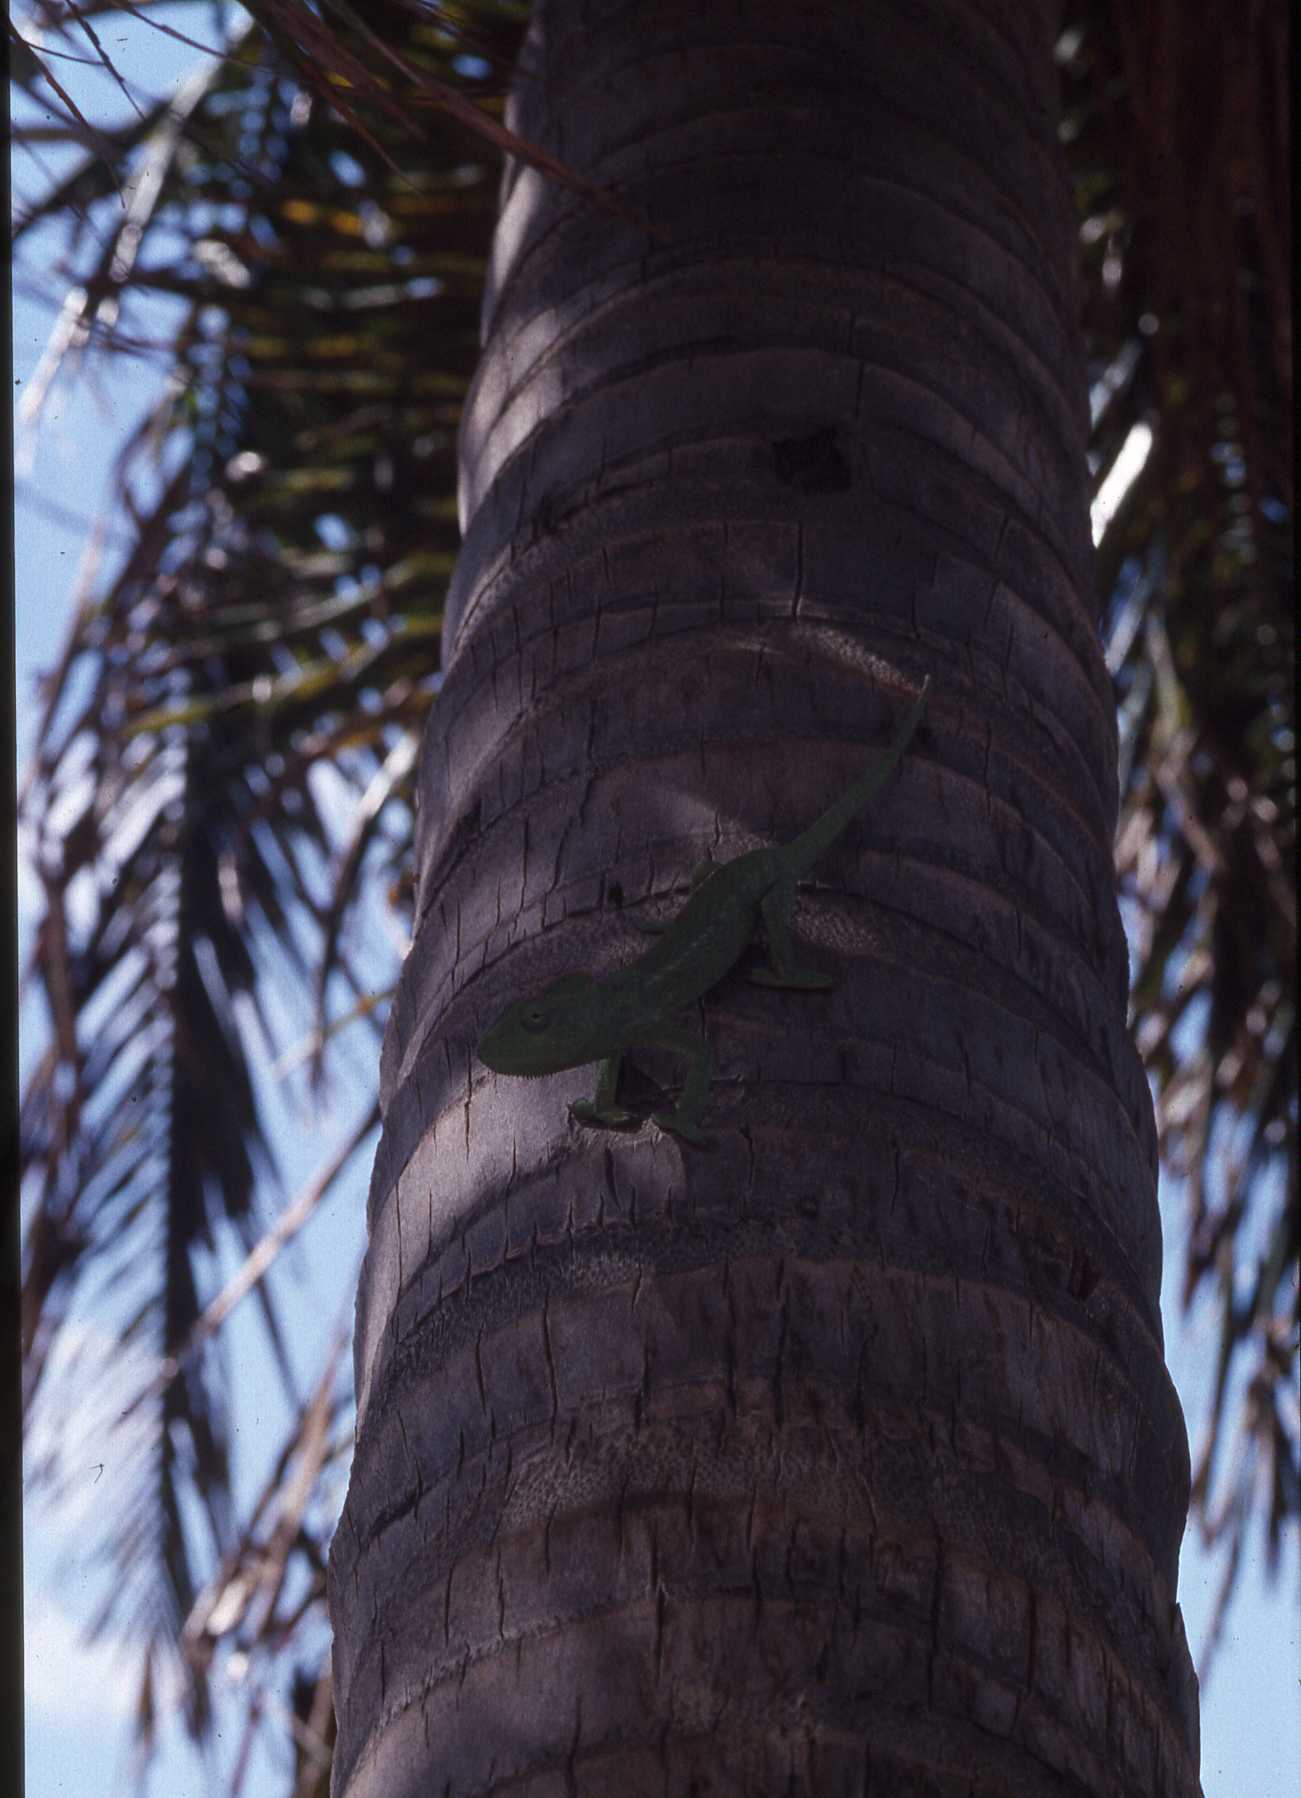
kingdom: Animalia
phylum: Chordata
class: Squamata
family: Chamaeleonidae
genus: Furcifer
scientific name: Furcifer oustaleti
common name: Oustalet's chameleon
